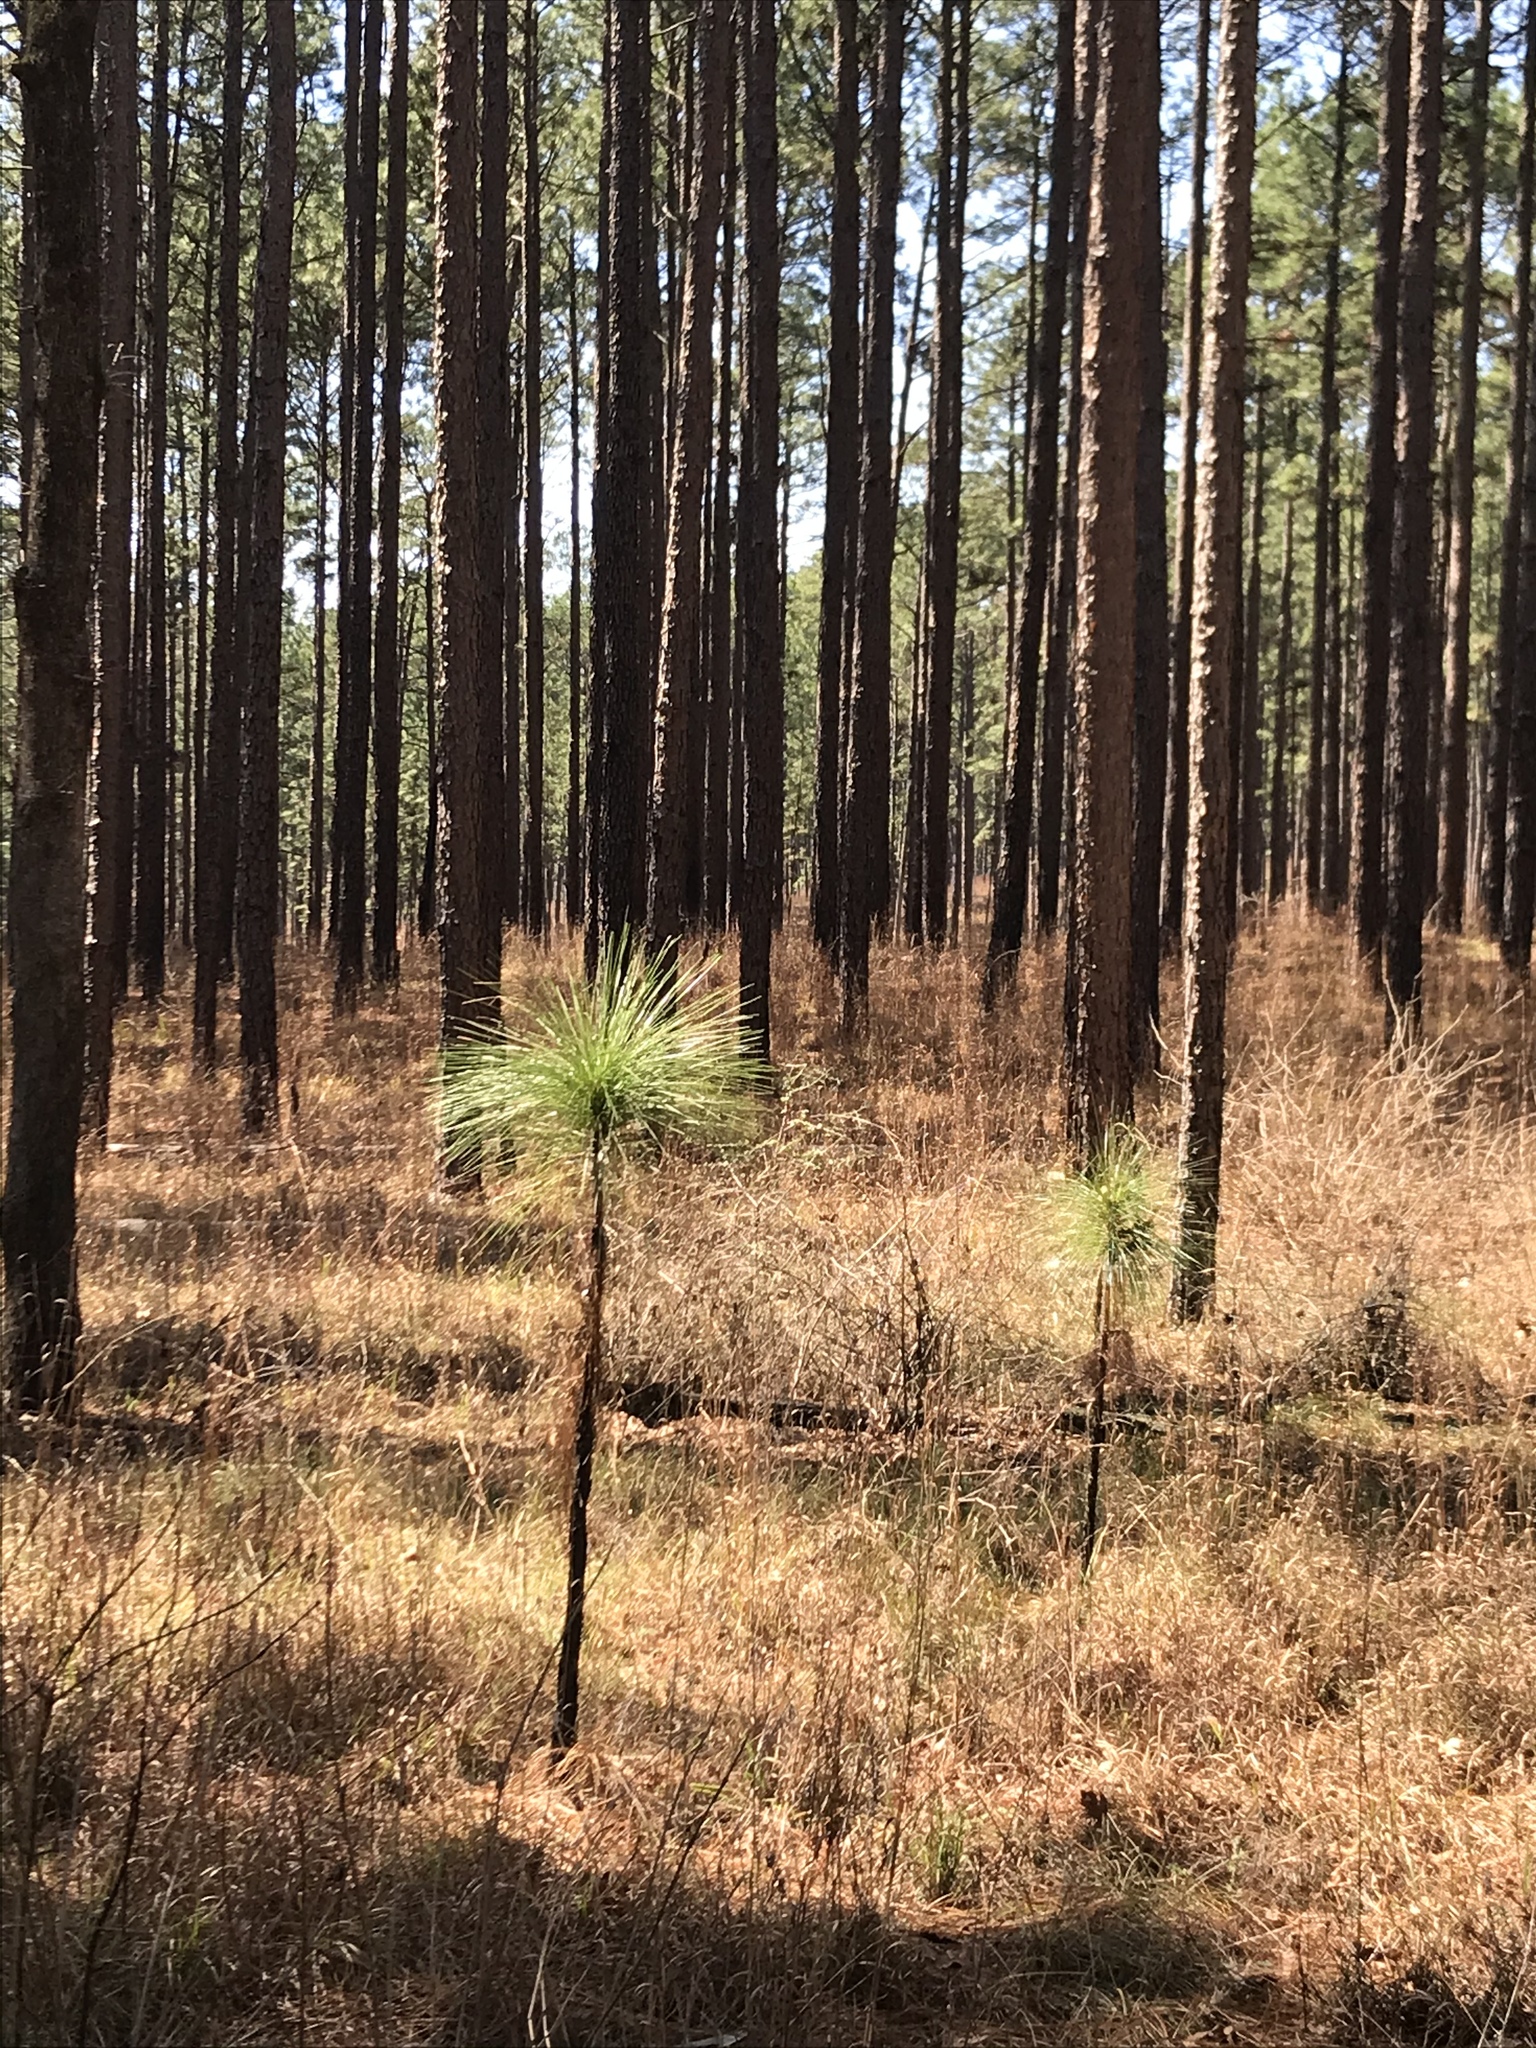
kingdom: Plantae
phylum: Tracheophyta
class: Pinopsida
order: Pinales
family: Pinaceae
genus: Pinus
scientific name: Pinus palustris
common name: Longleaf pine
